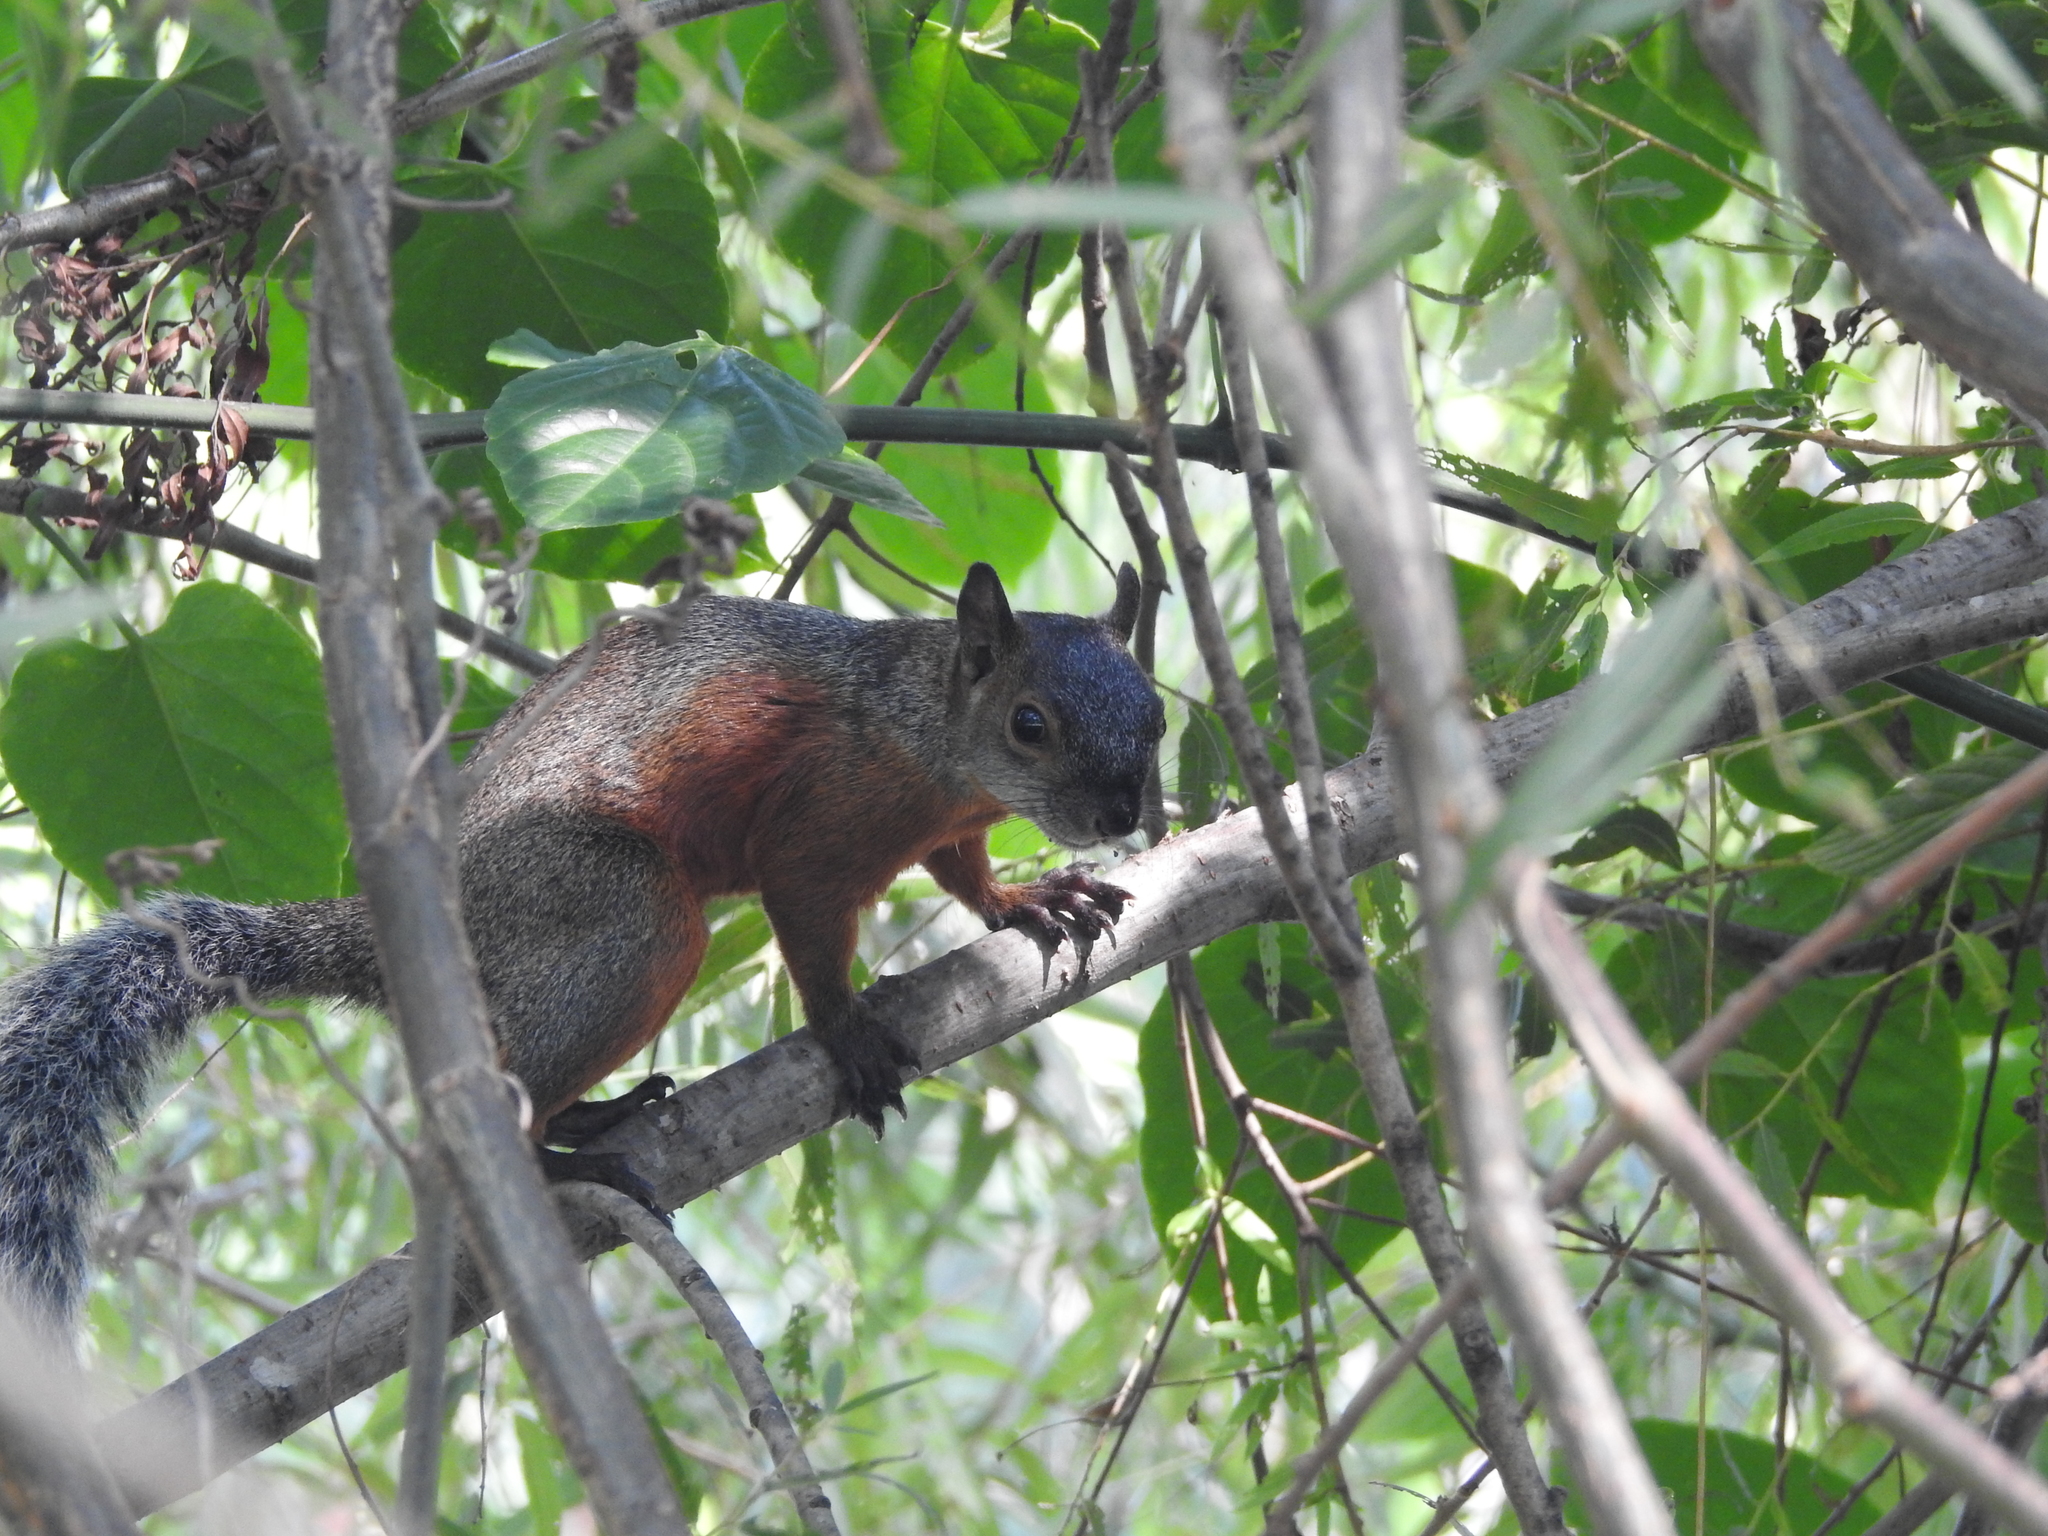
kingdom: Animalia
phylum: Chordata
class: Mammalia
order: Rodentia
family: Sciuridae
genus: Sciurus
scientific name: Sciurus aureogaster
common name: Red-bellied squirrel
